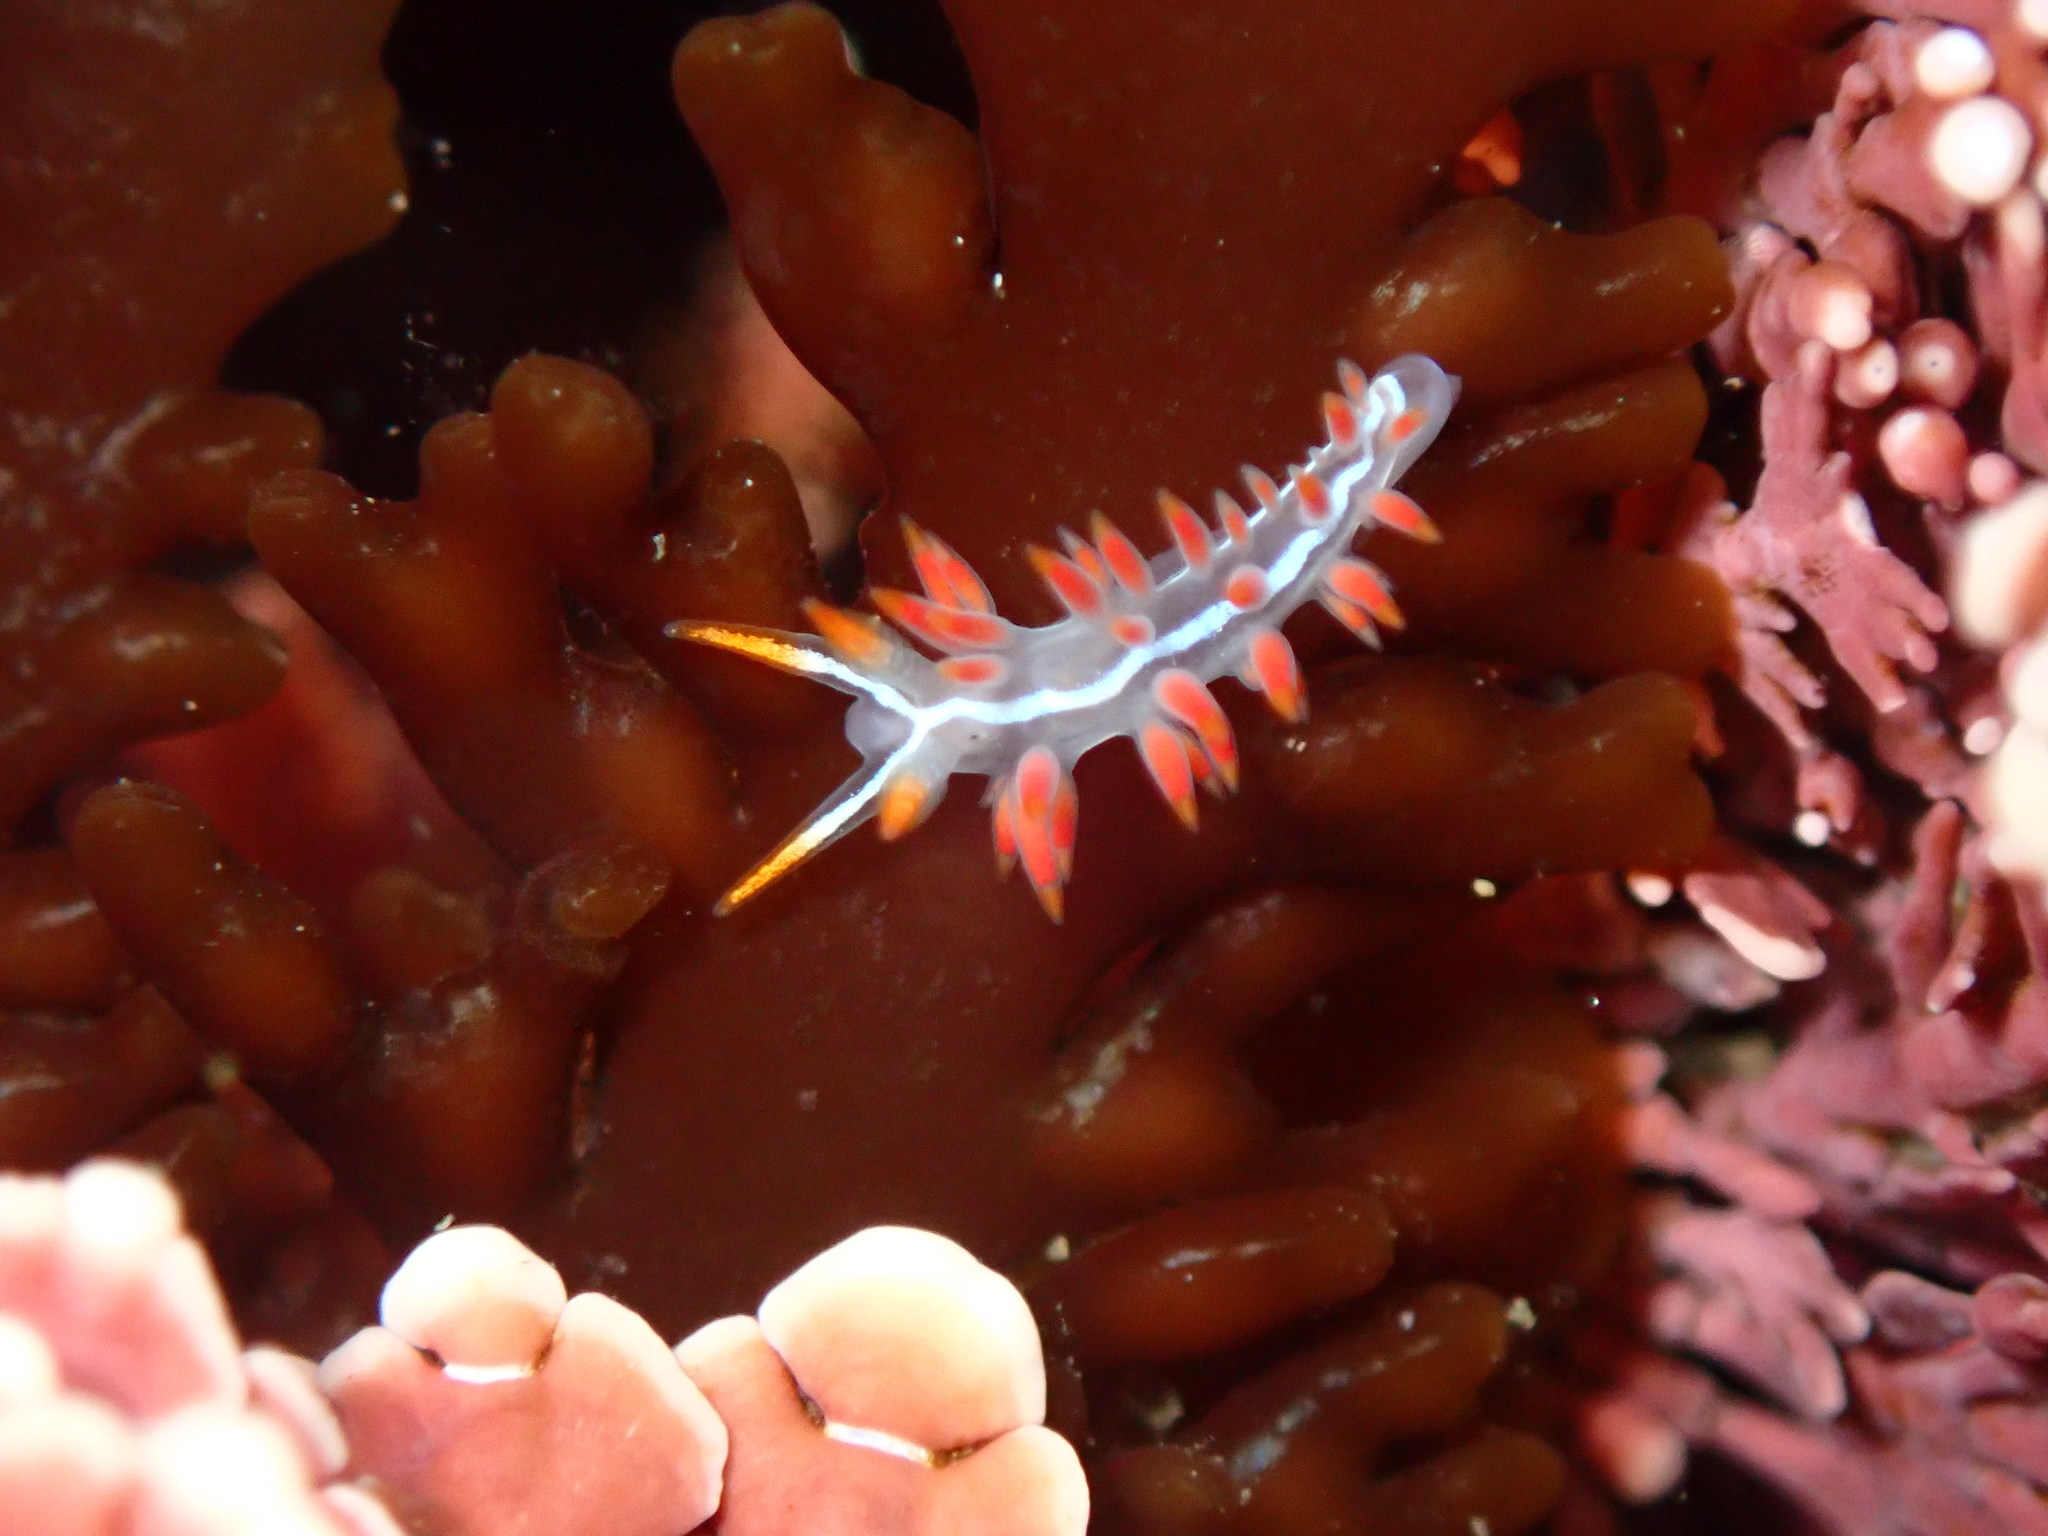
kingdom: Animalia
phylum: Mollusca
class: Gastropoda
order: Nudibranchia
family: Coryphellidae
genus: Coryphella
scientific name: Coryphella trilineata
